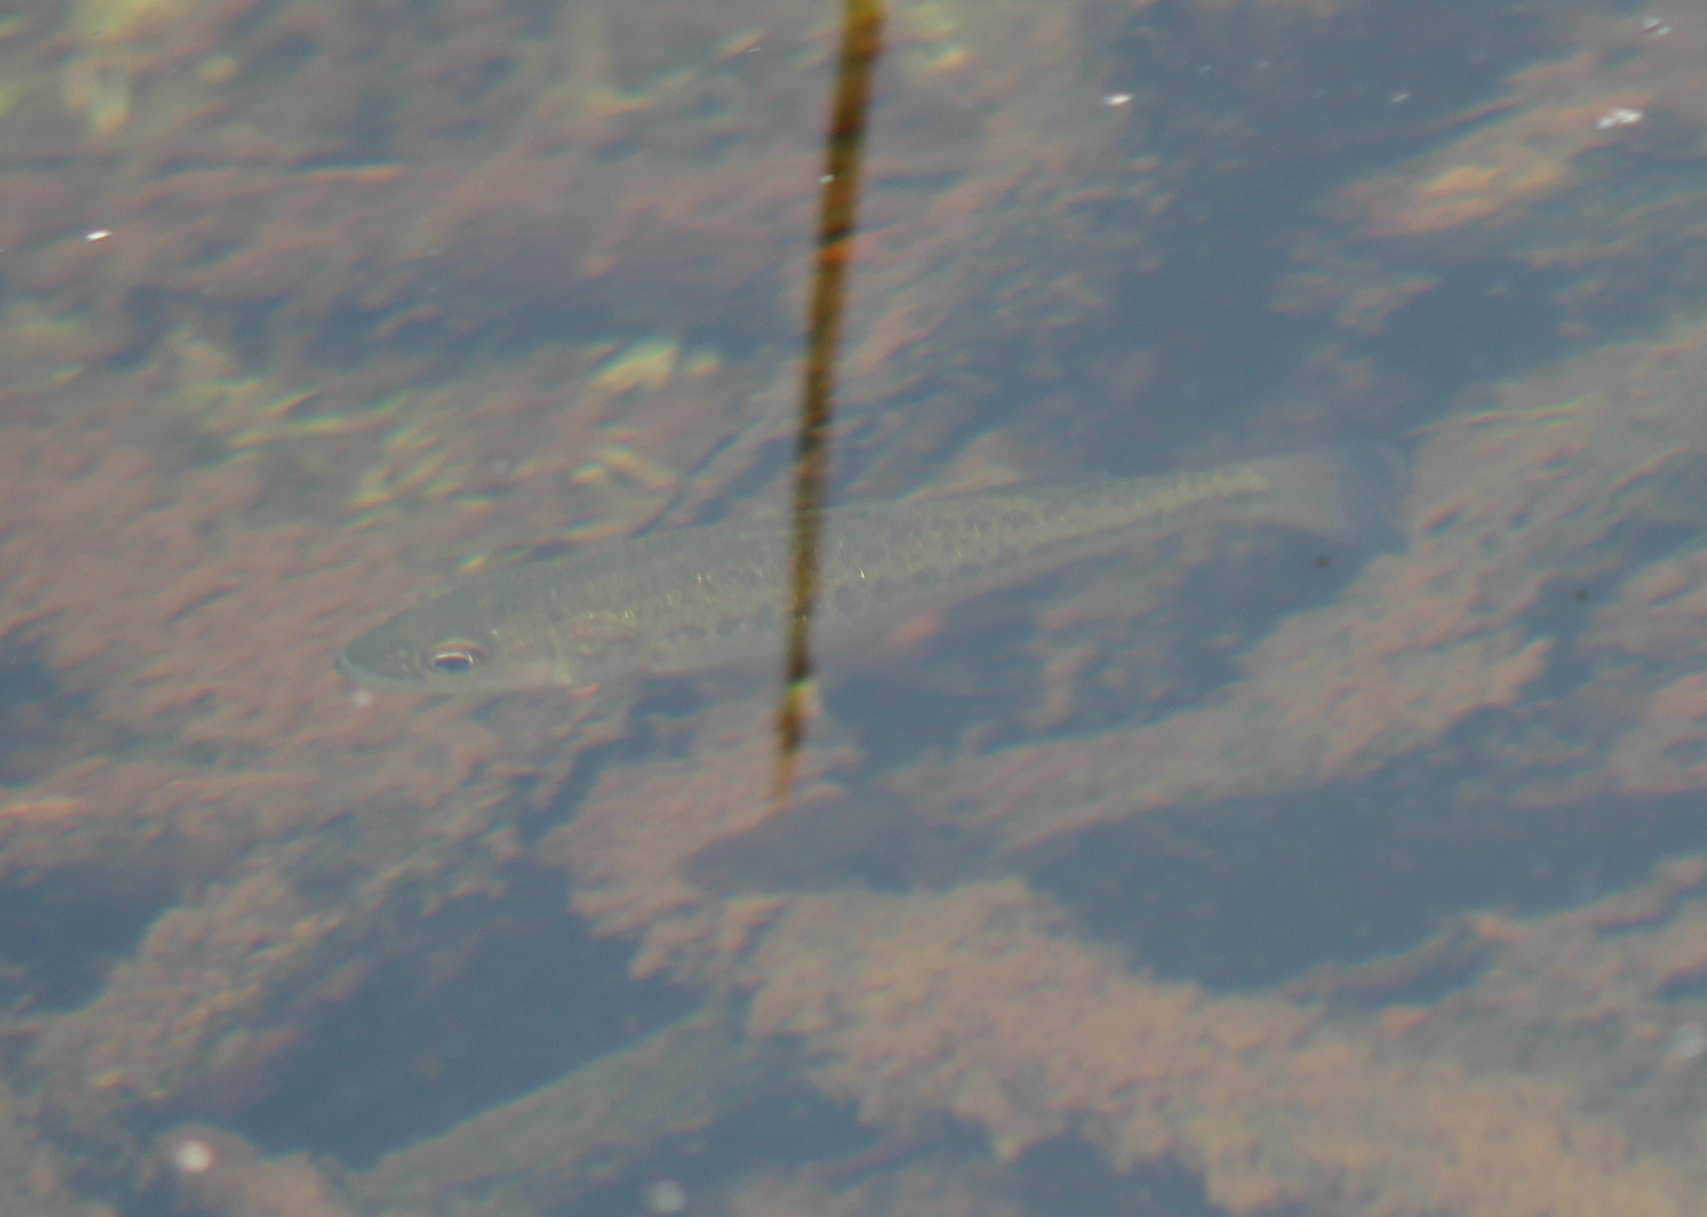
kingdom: Animalia
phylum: Chordata
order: Perciformes
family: Centrarchidae
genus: Micropterus
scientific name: Micropterus
